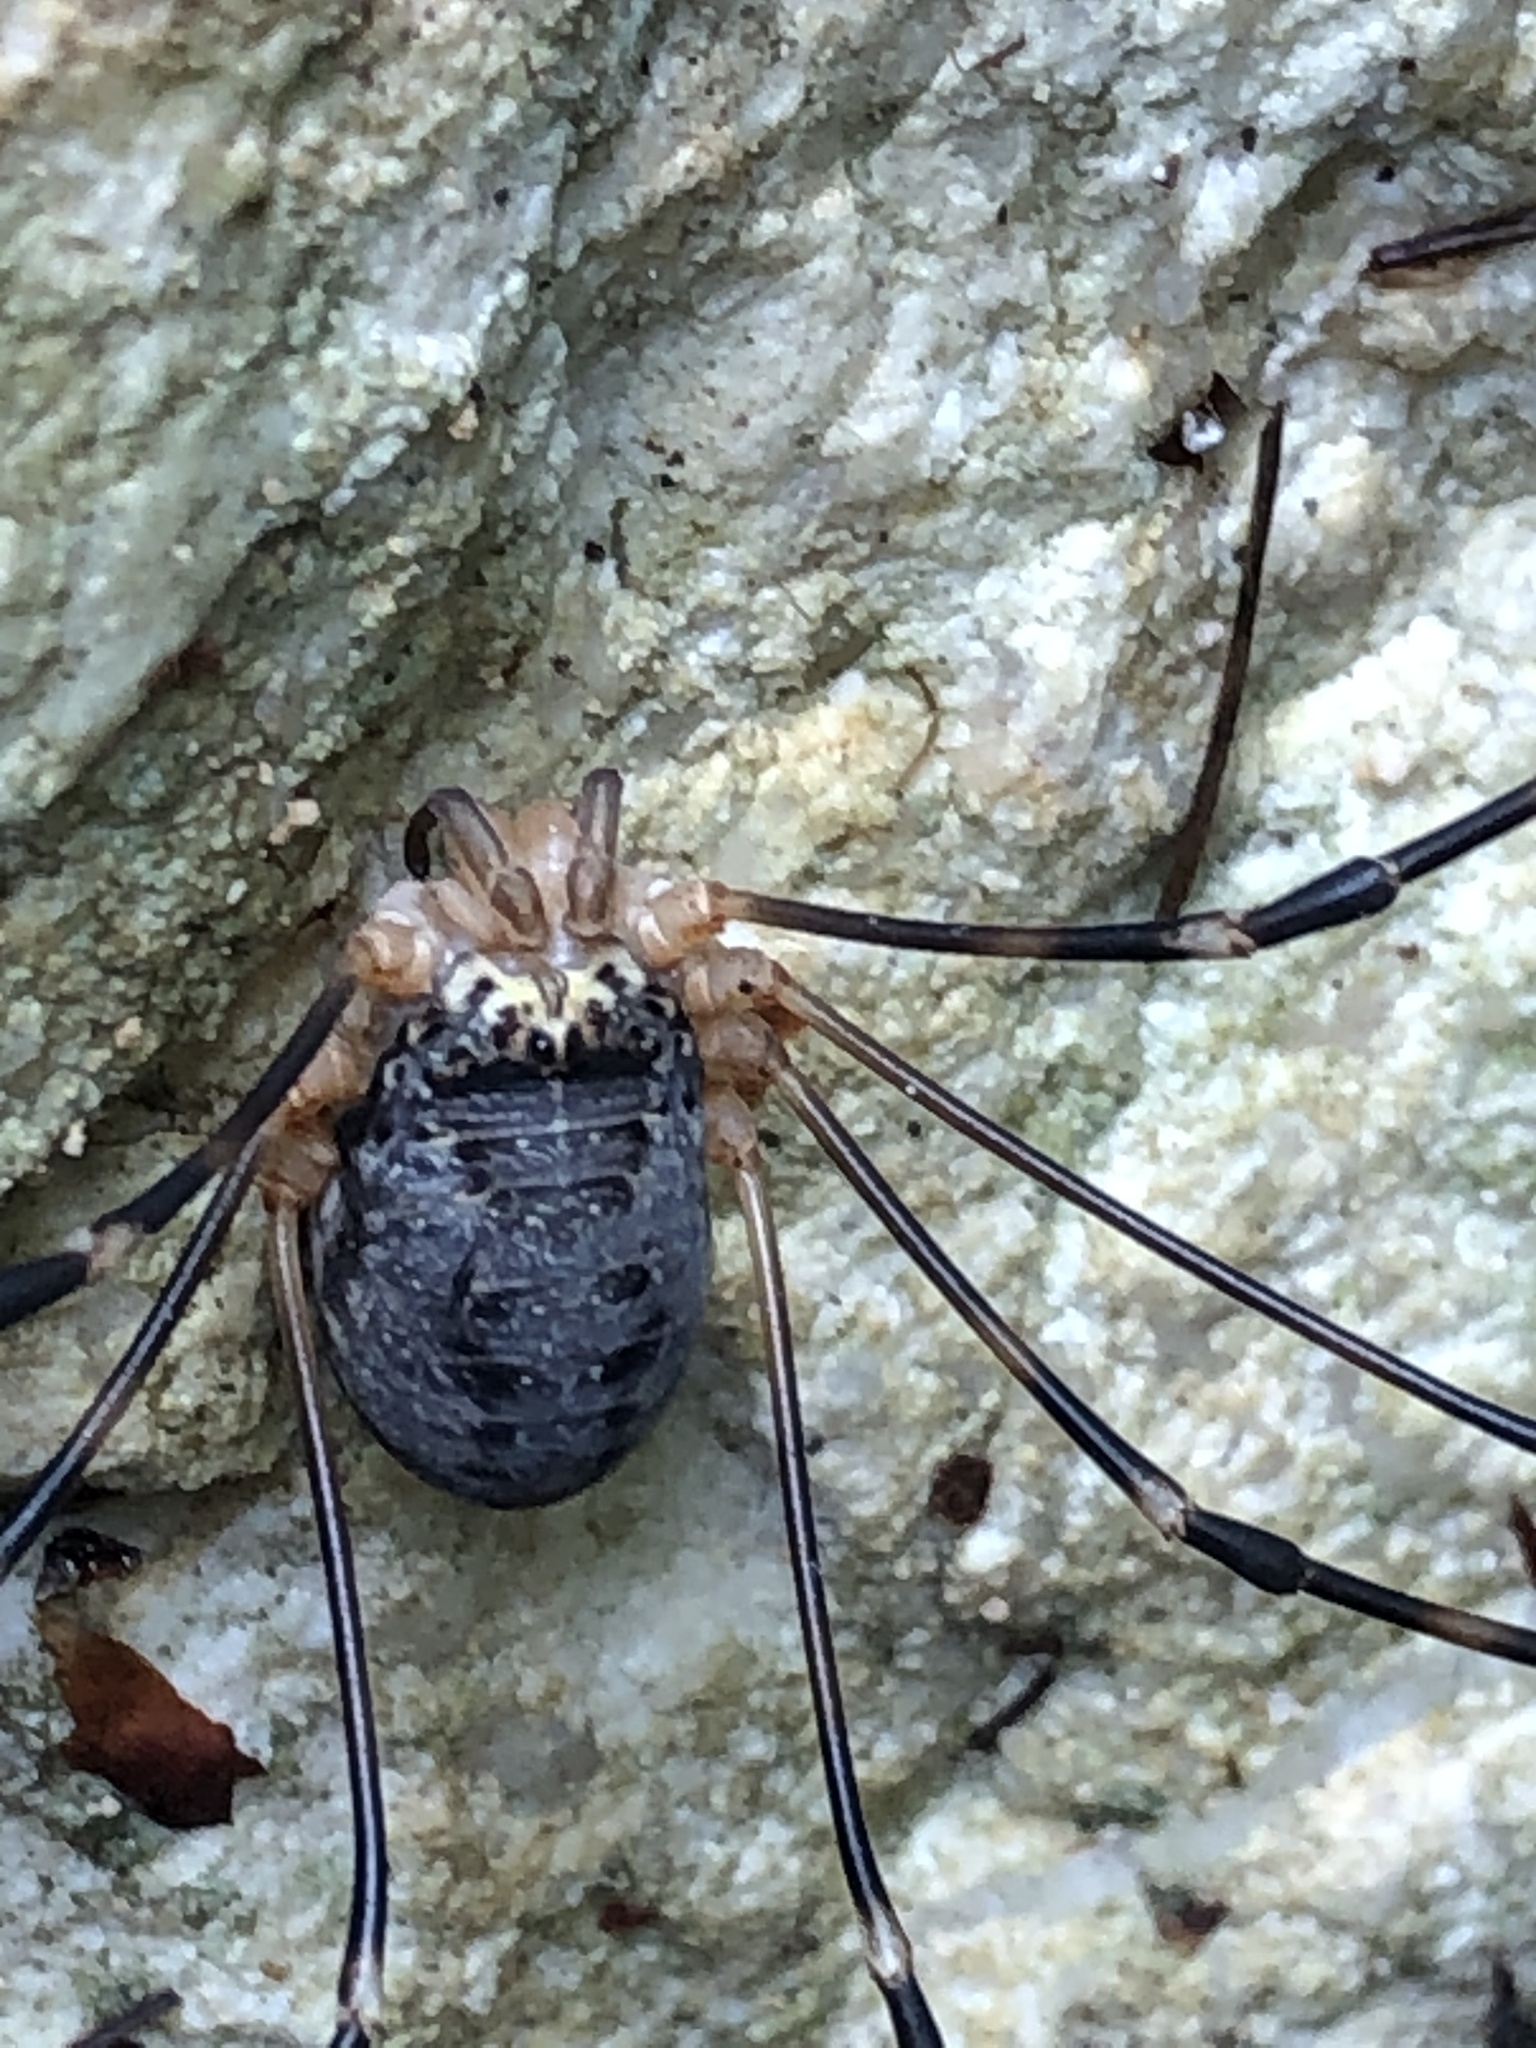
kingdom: Animalia
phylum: Arthropoda
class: Arachnida
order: Opiliones
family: Sclerosomatidae
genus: Gyas
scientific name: Gyas annulatus
